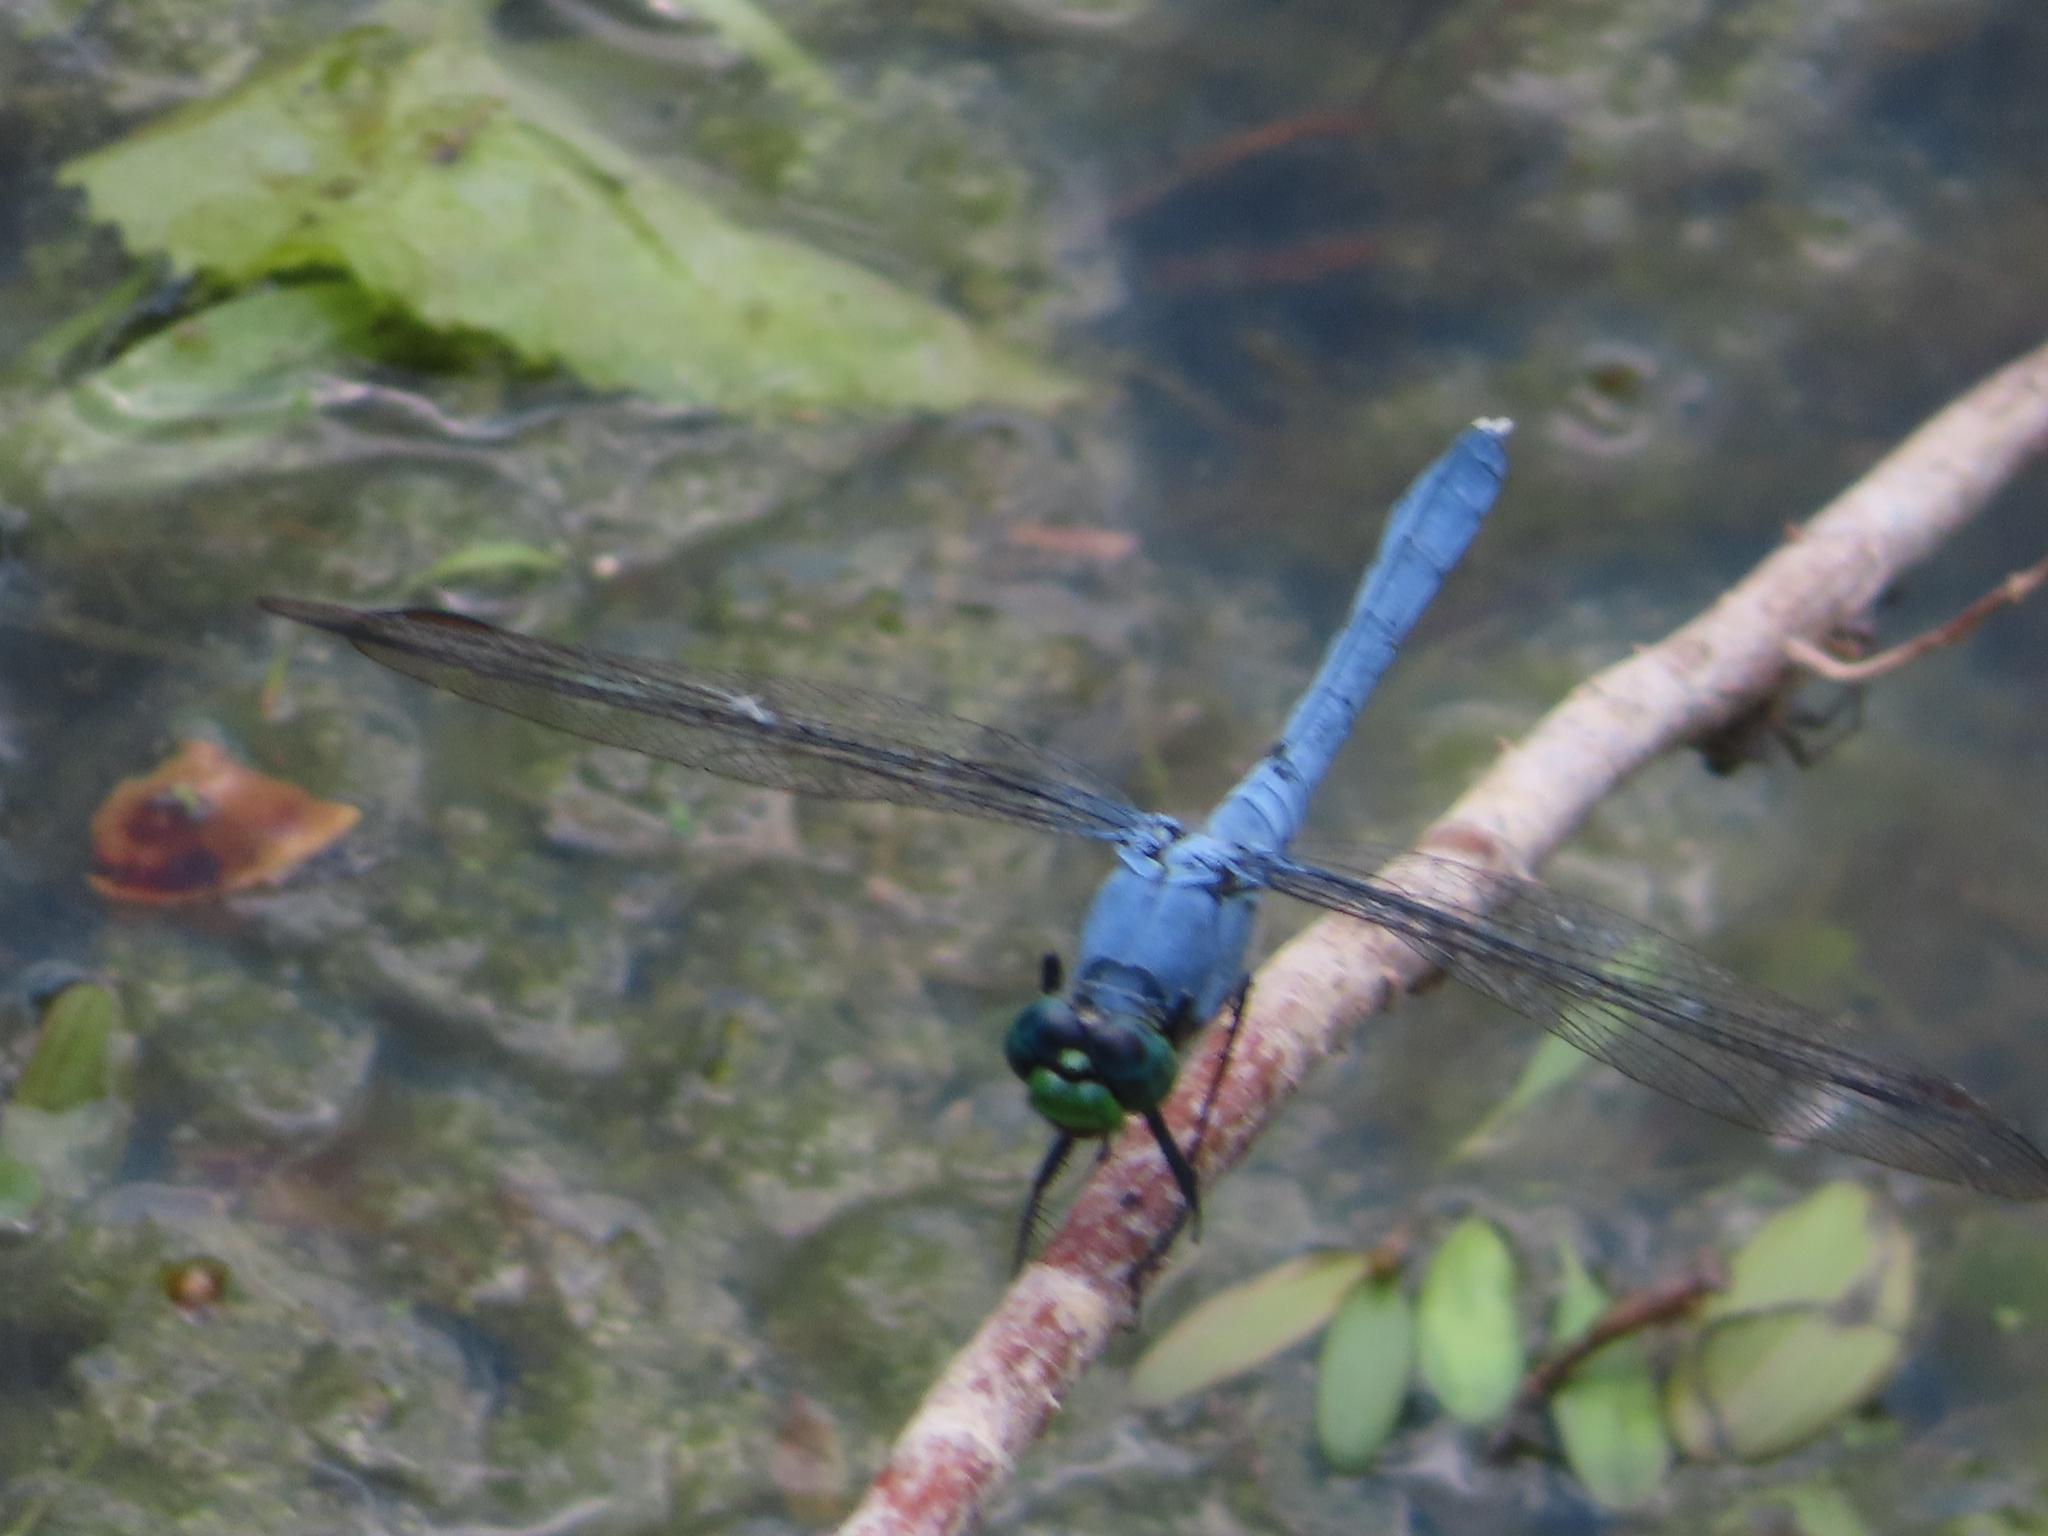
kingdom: Animalia
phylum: Arthropoda
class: Insecta
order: Odonata
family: Libellulidae
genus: Erythemis
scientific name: Erythemis simplicicollis
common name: Eastern pondhawk
